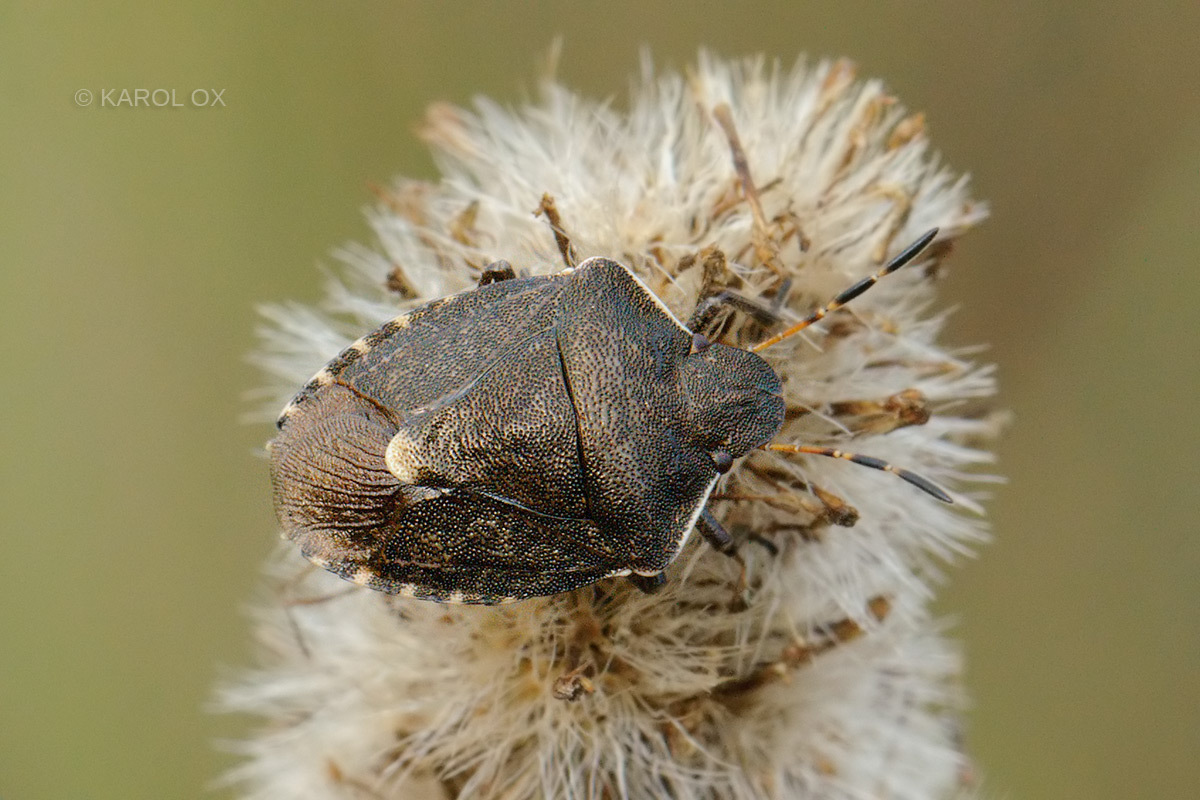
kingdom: Animalia
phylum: Arthropoda
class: Insecta
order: Hemiptera
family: Pentatomidae
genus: Holcostethus
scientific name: Holcostethus strictus
